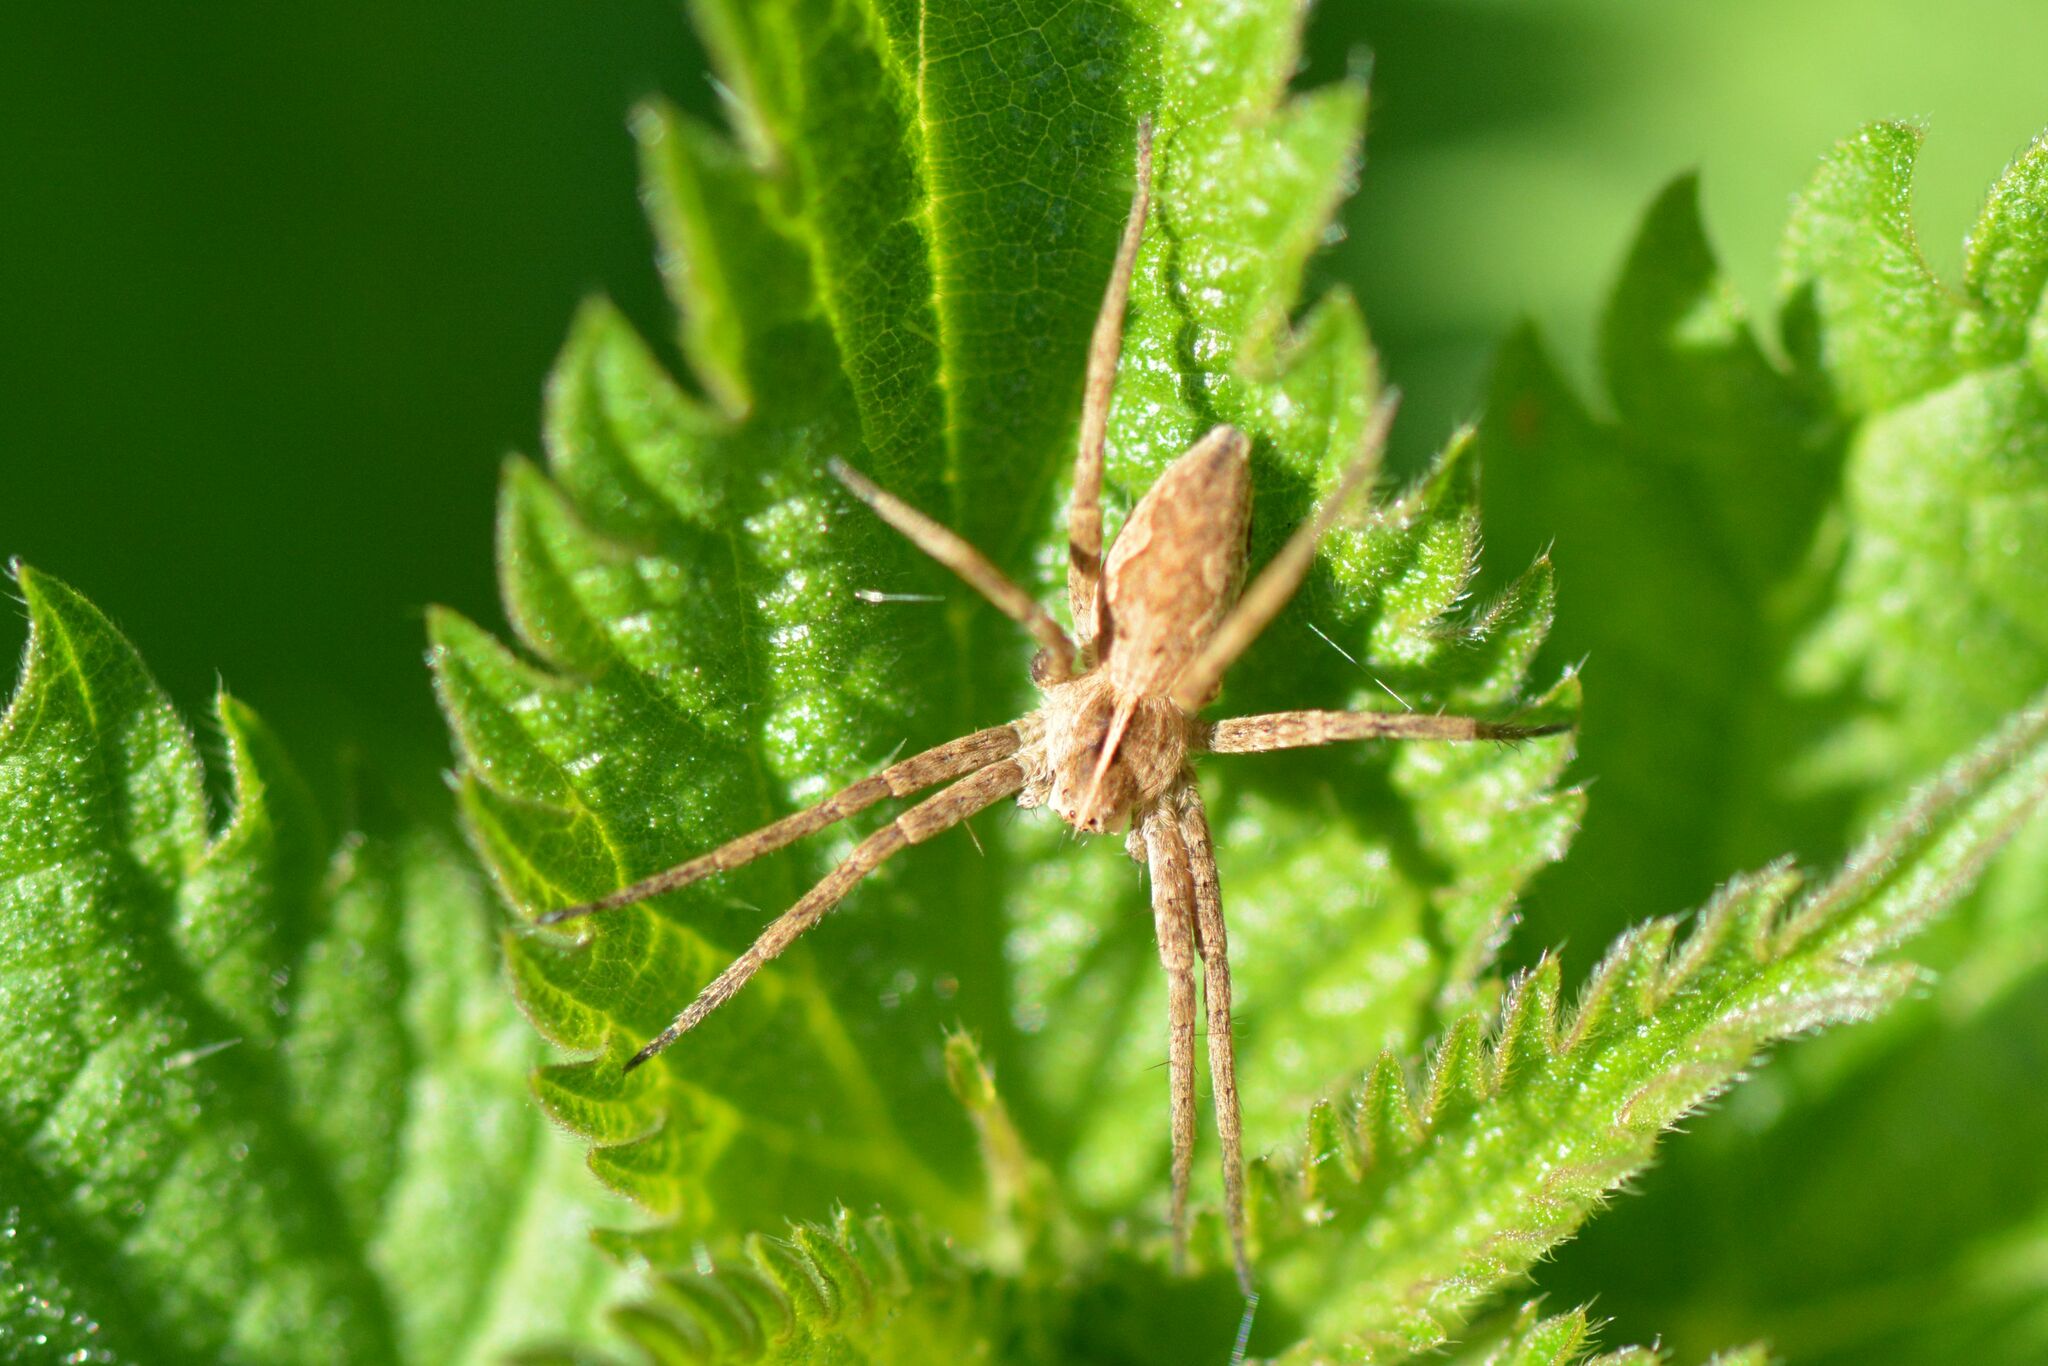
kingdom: Animalia
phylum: Arthropoda
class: Arachnida
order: Araneae
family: Pisauridae
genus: Pisaura
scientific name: Pisaura mirabilis
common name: Tent spider
